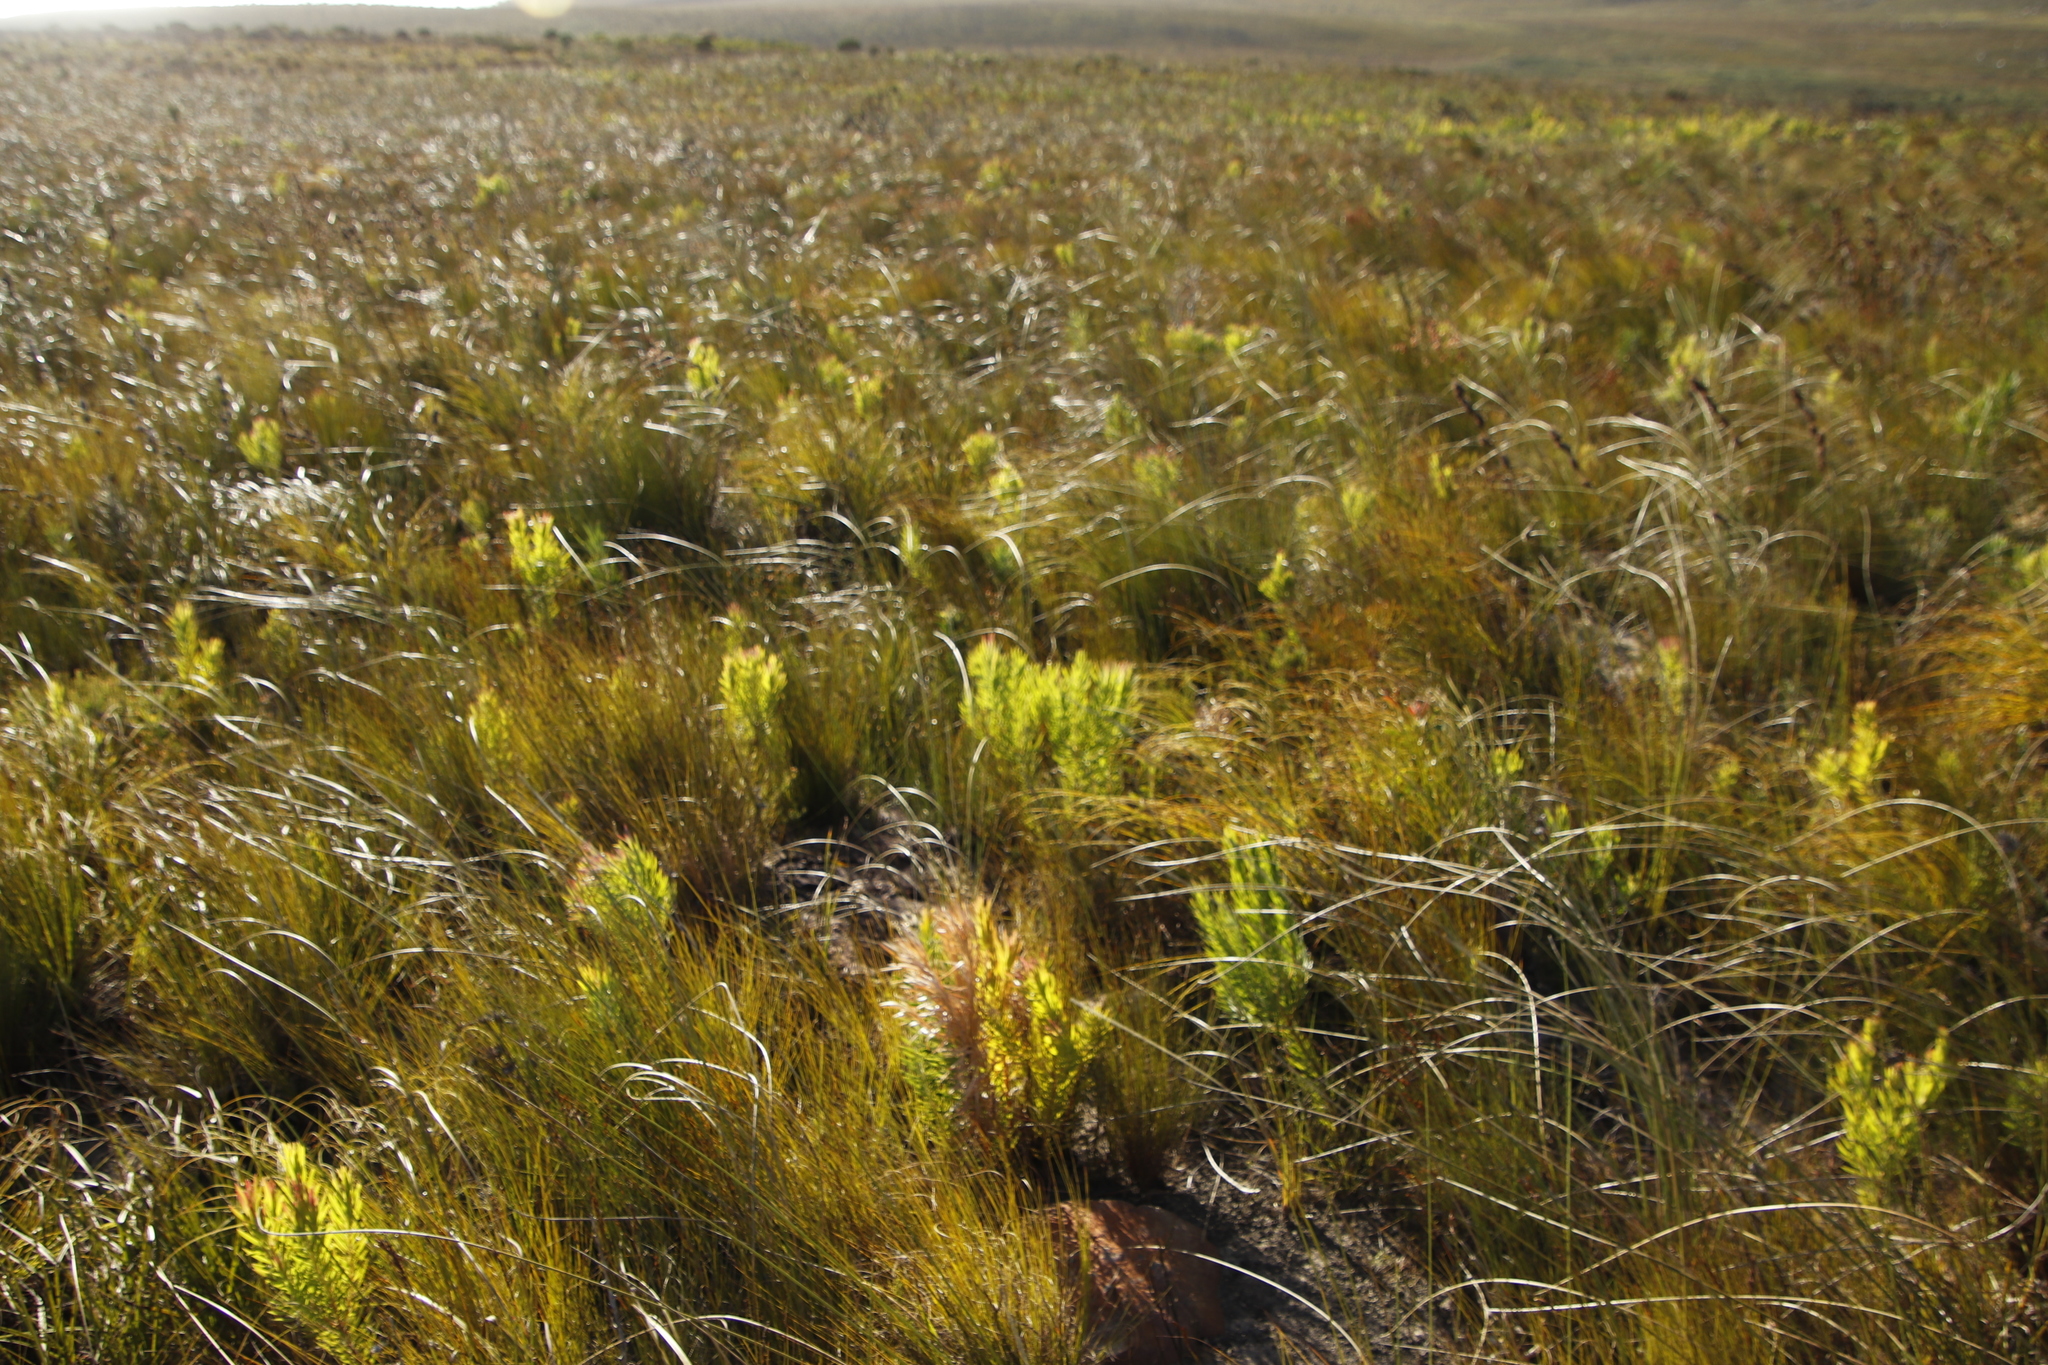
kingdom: Plantae
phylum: Tracheophyta
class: Magnoliopsida
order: Proteales
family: Proteaceae
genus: Leucadendron
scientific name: Leucadendron xanthoconus
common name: Sickle-leaf conebush
